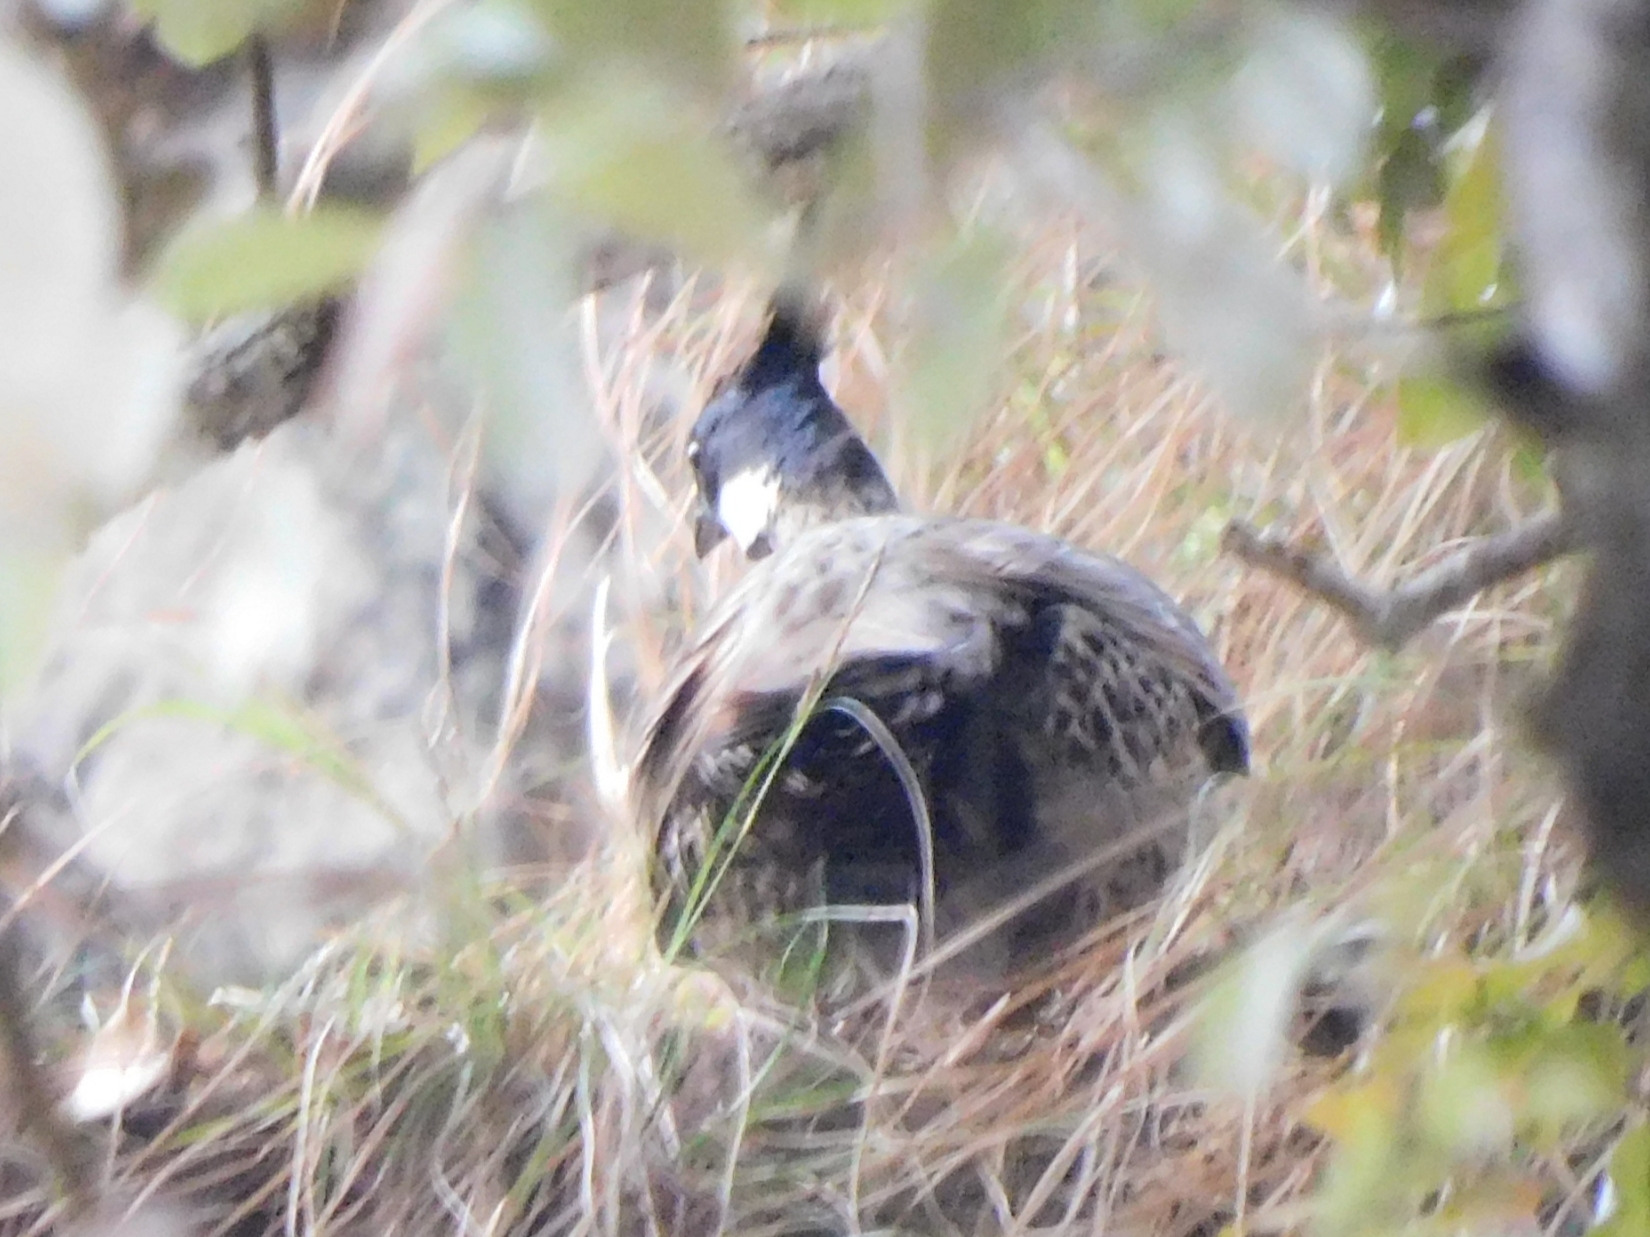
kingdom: Animalia
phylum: Chordata
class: Aves
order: Galliformes
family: Phasianidae
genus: Pucrasia
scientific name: Pucrasia macrolopha
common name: Koklass pheasant
